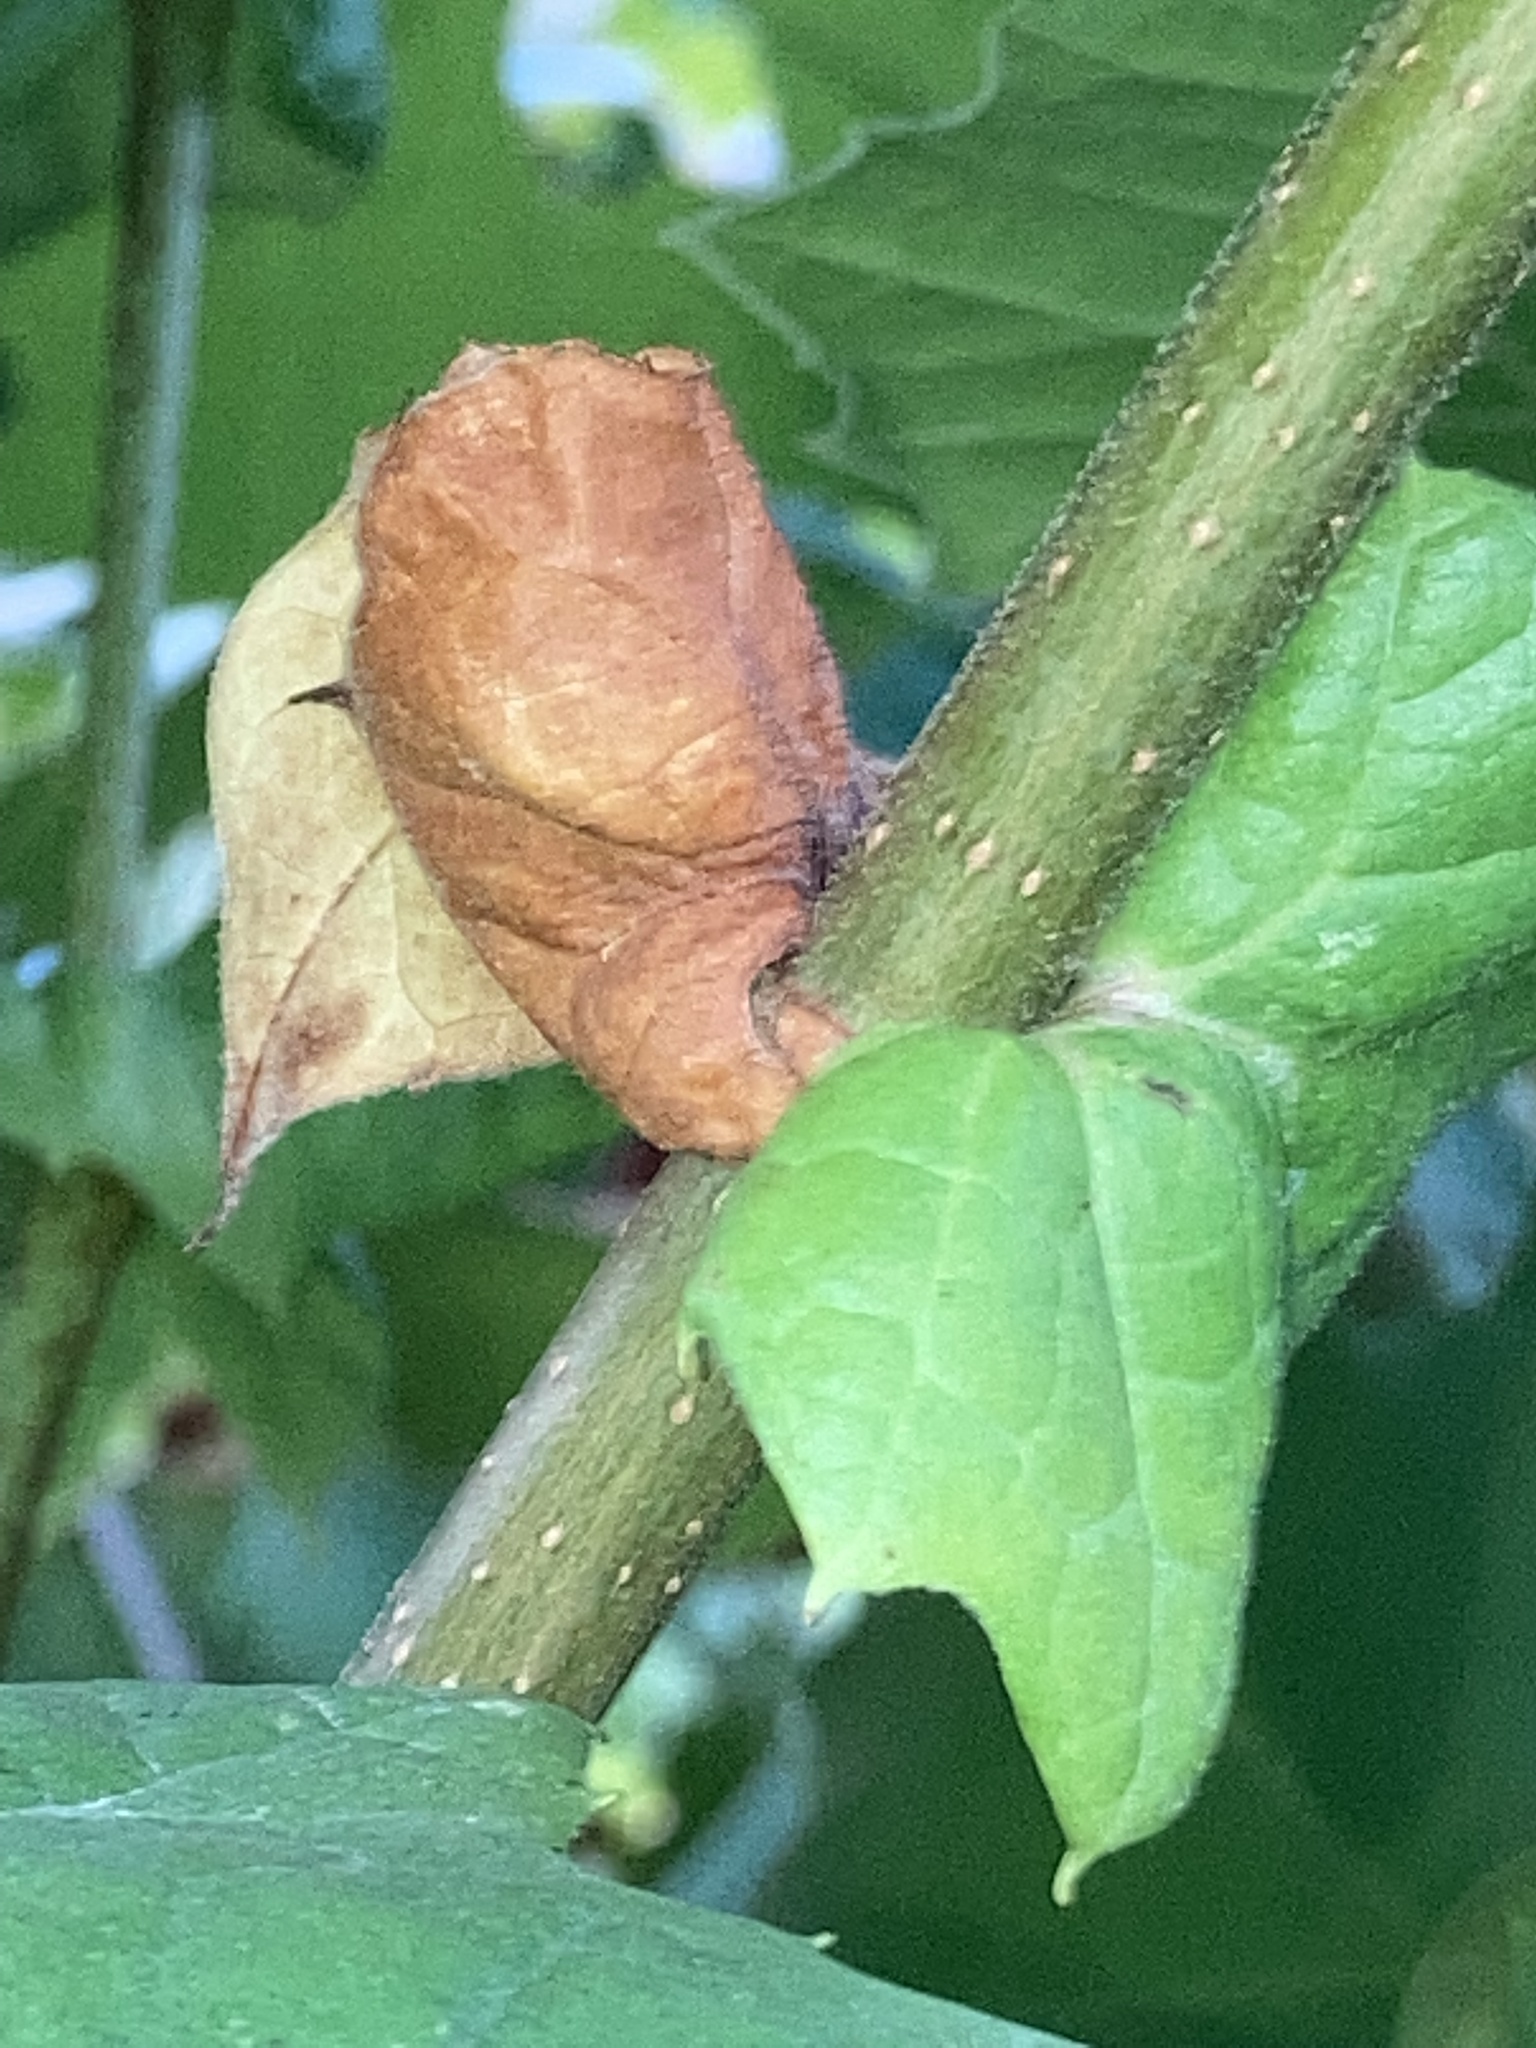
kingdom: Plantae
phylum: Tracheophyta
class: Magnoliopsida
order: Proteales
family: Platanaceae
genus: Platanus
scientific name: Platanus occidentalis
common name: American sycamore
